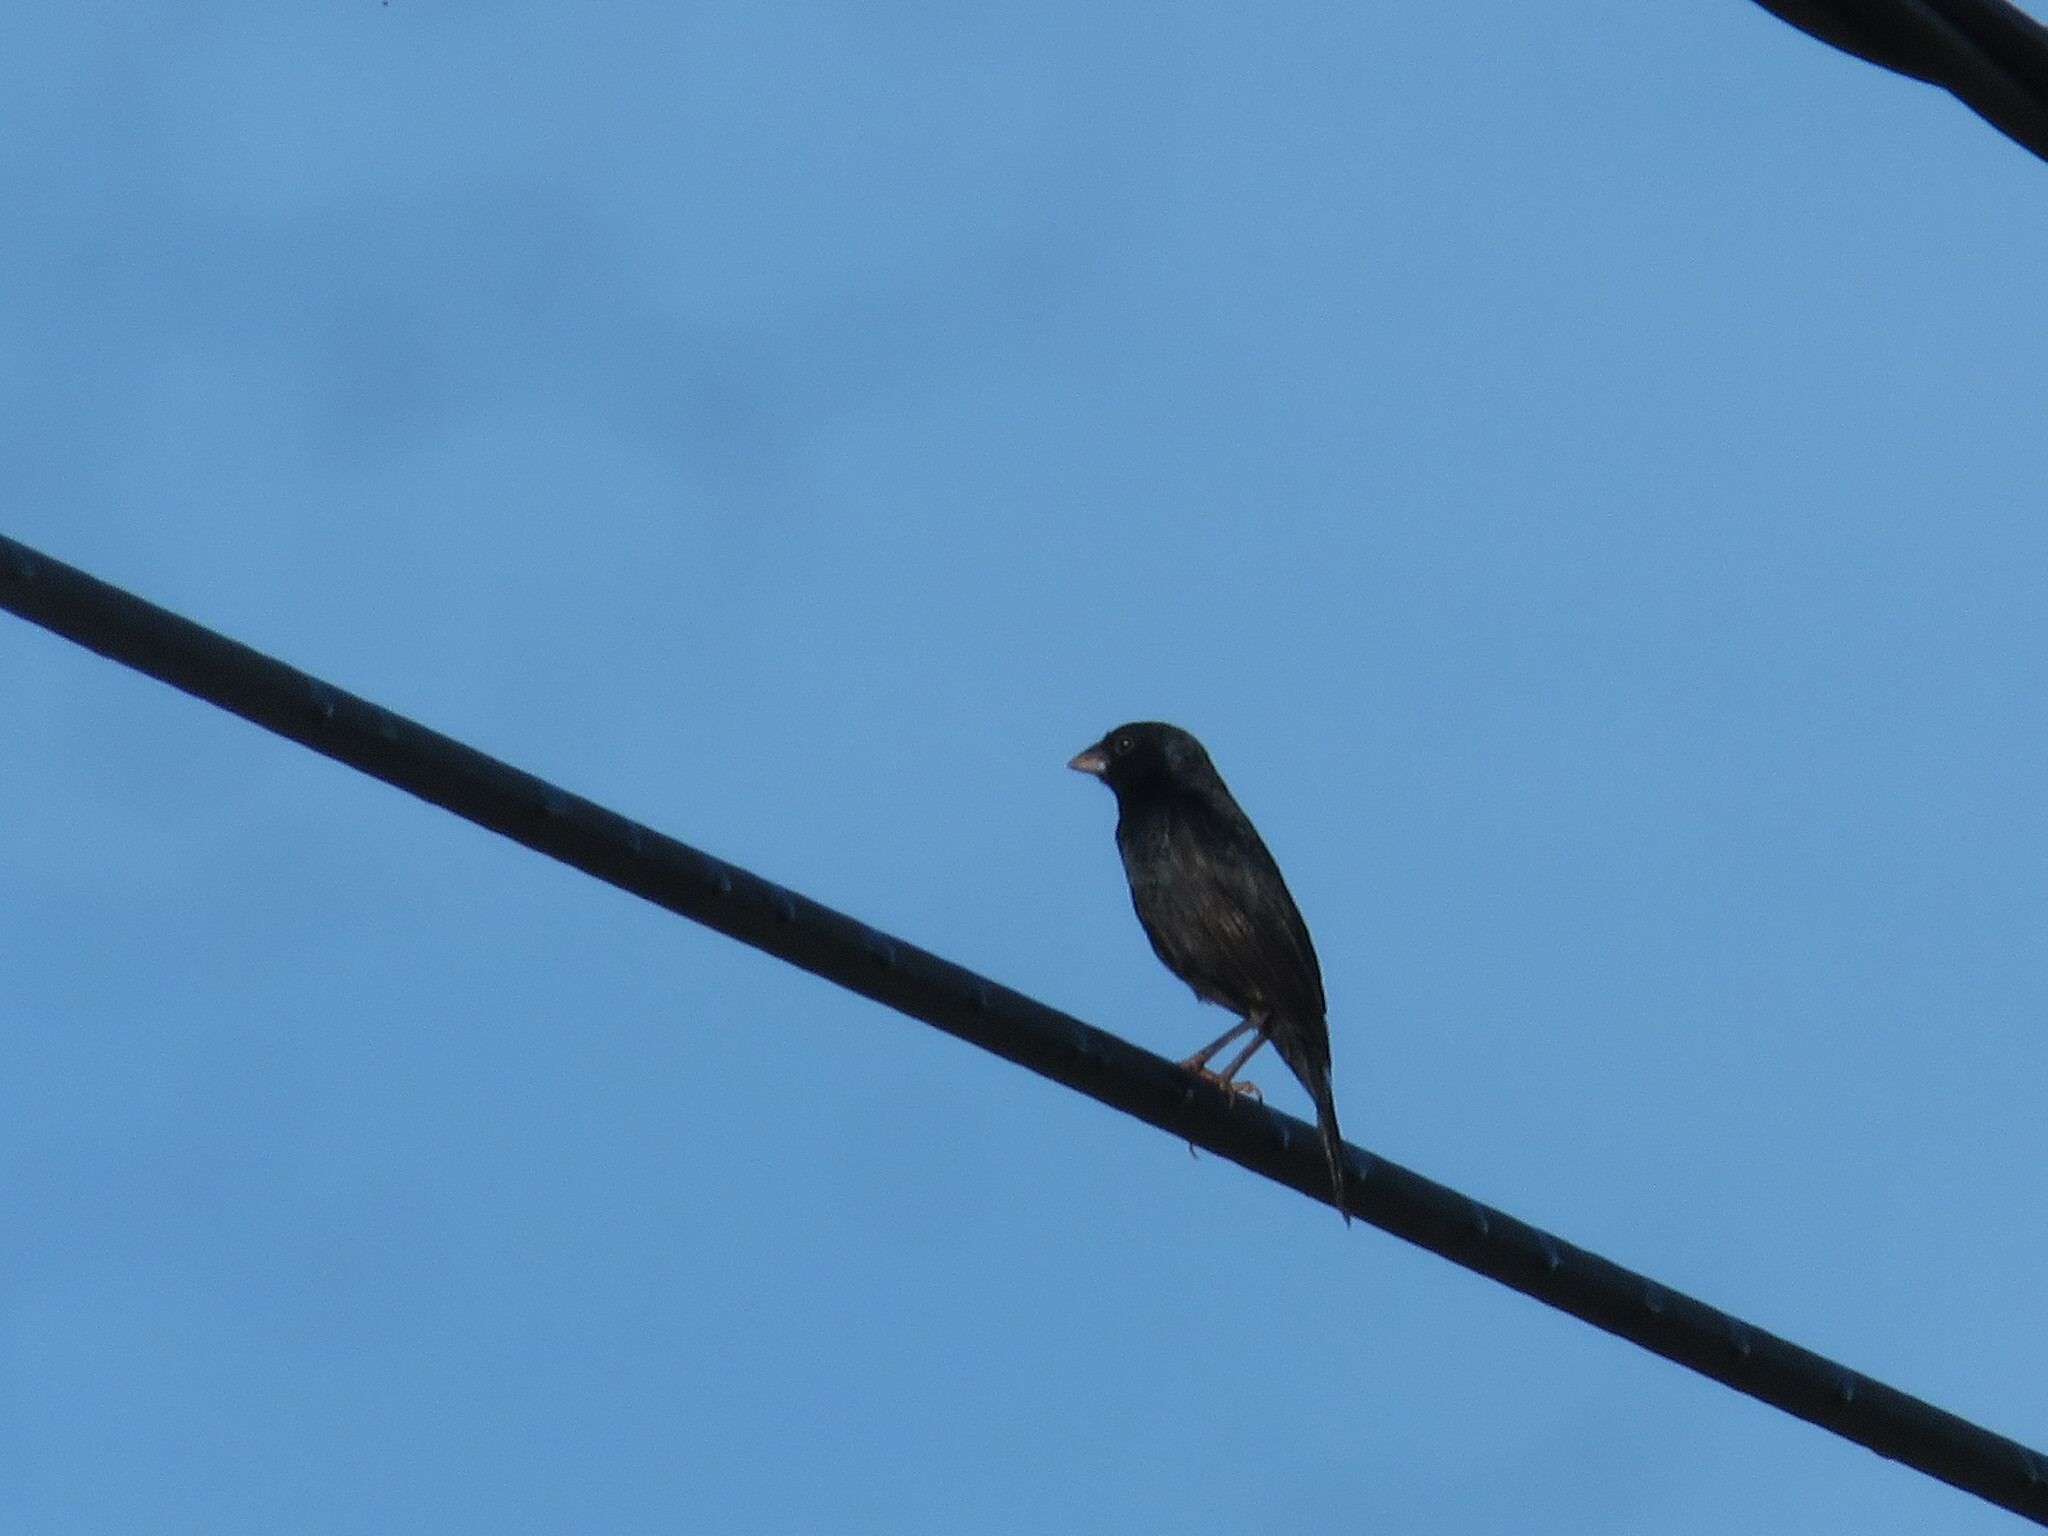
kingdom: Animalia
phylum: Chordata
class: Aves
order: Passeriformes
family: Thraupidae
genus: Volatinia
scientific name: Volatinia jacarina
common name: Blue-black grassquit
